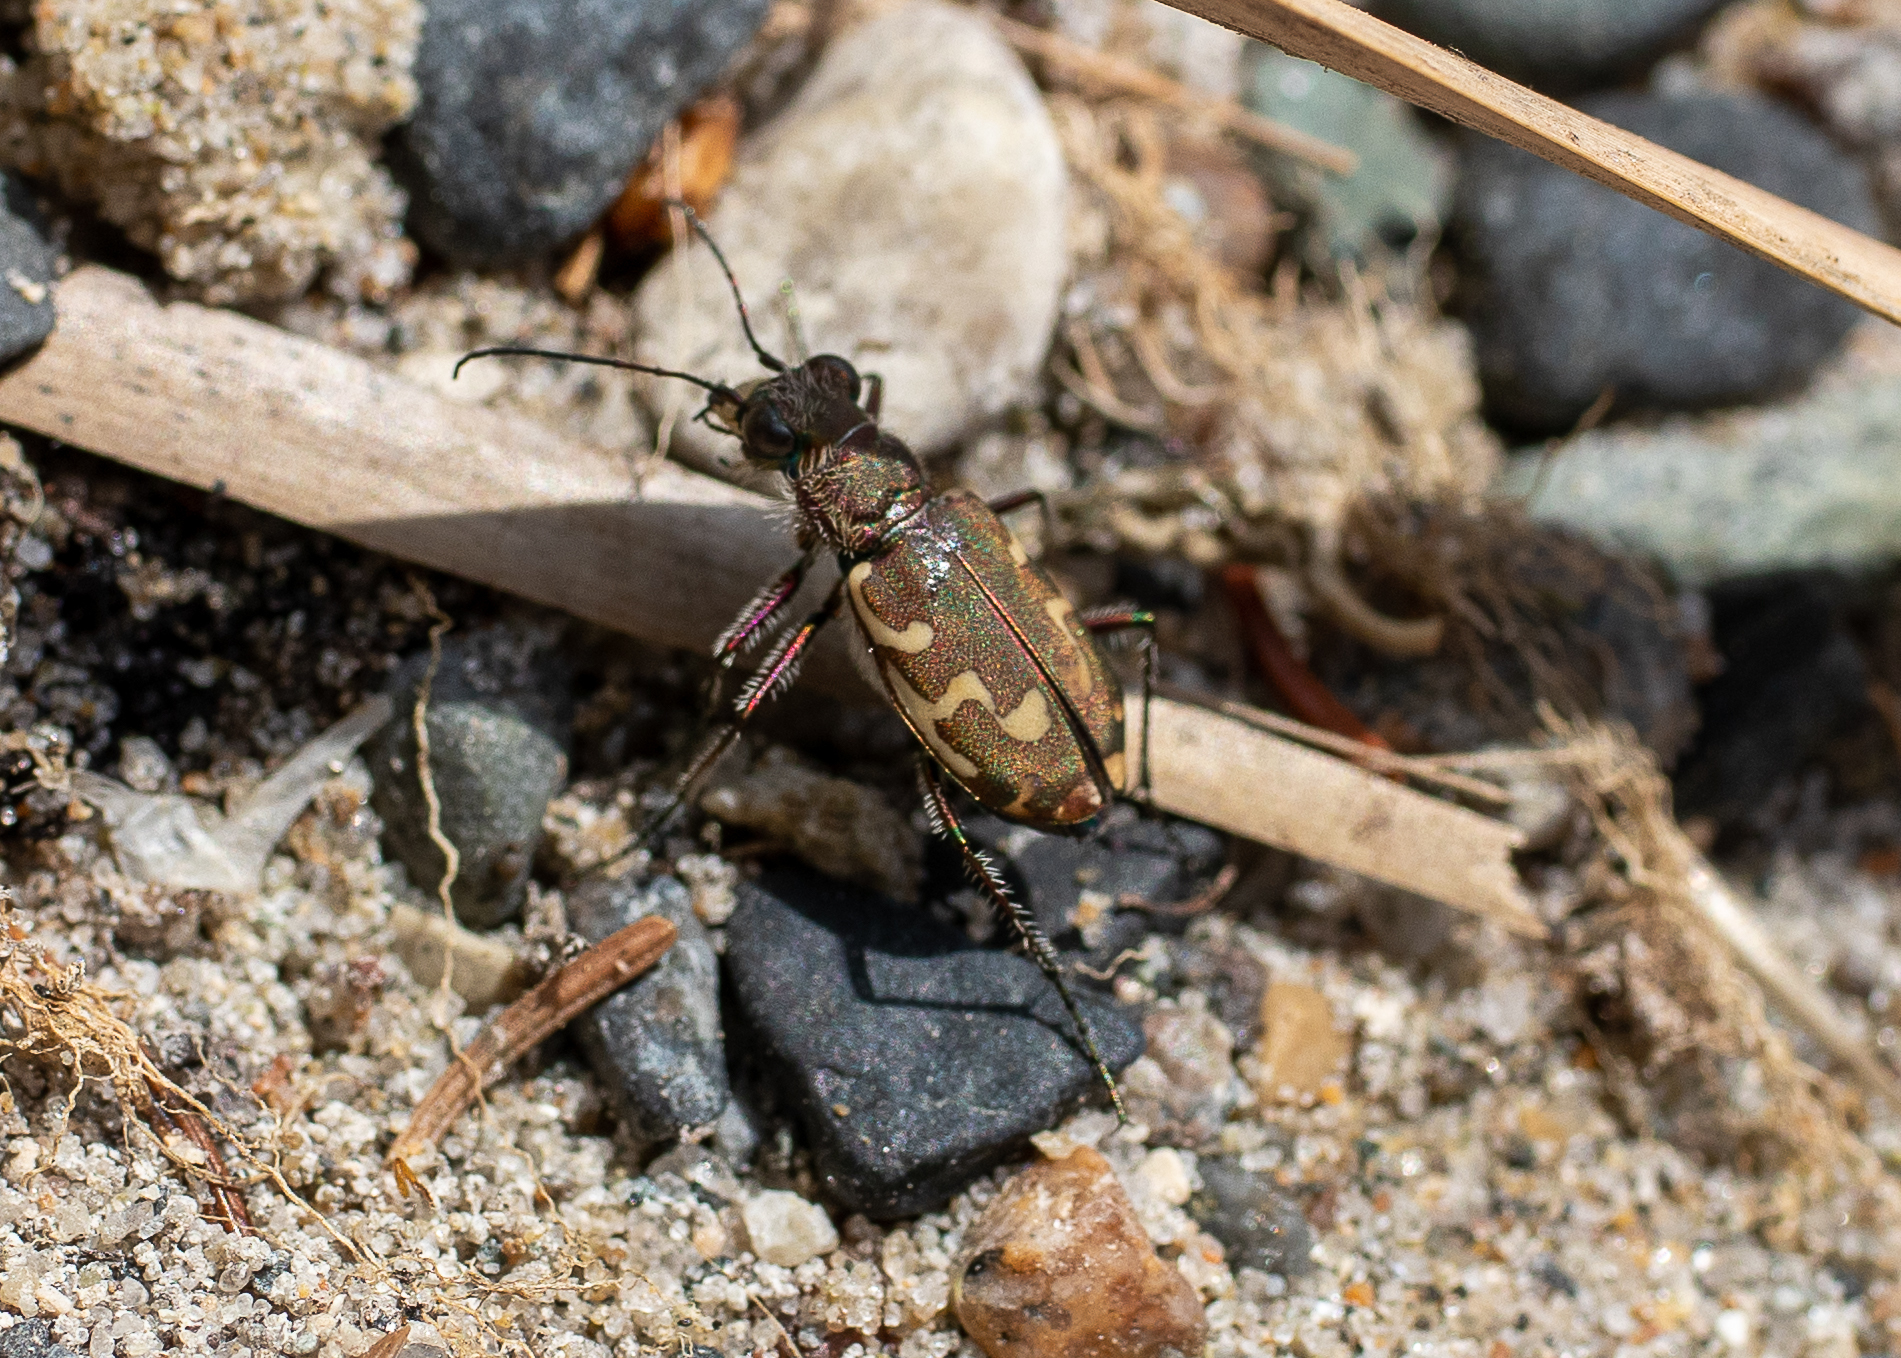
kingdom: Animalia
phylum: Arthropoda
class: Insecta
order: Coleoptera
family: Carabidae
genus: Cicindela
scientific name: Cicindela repanda
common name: Bronzed tiger beetle
